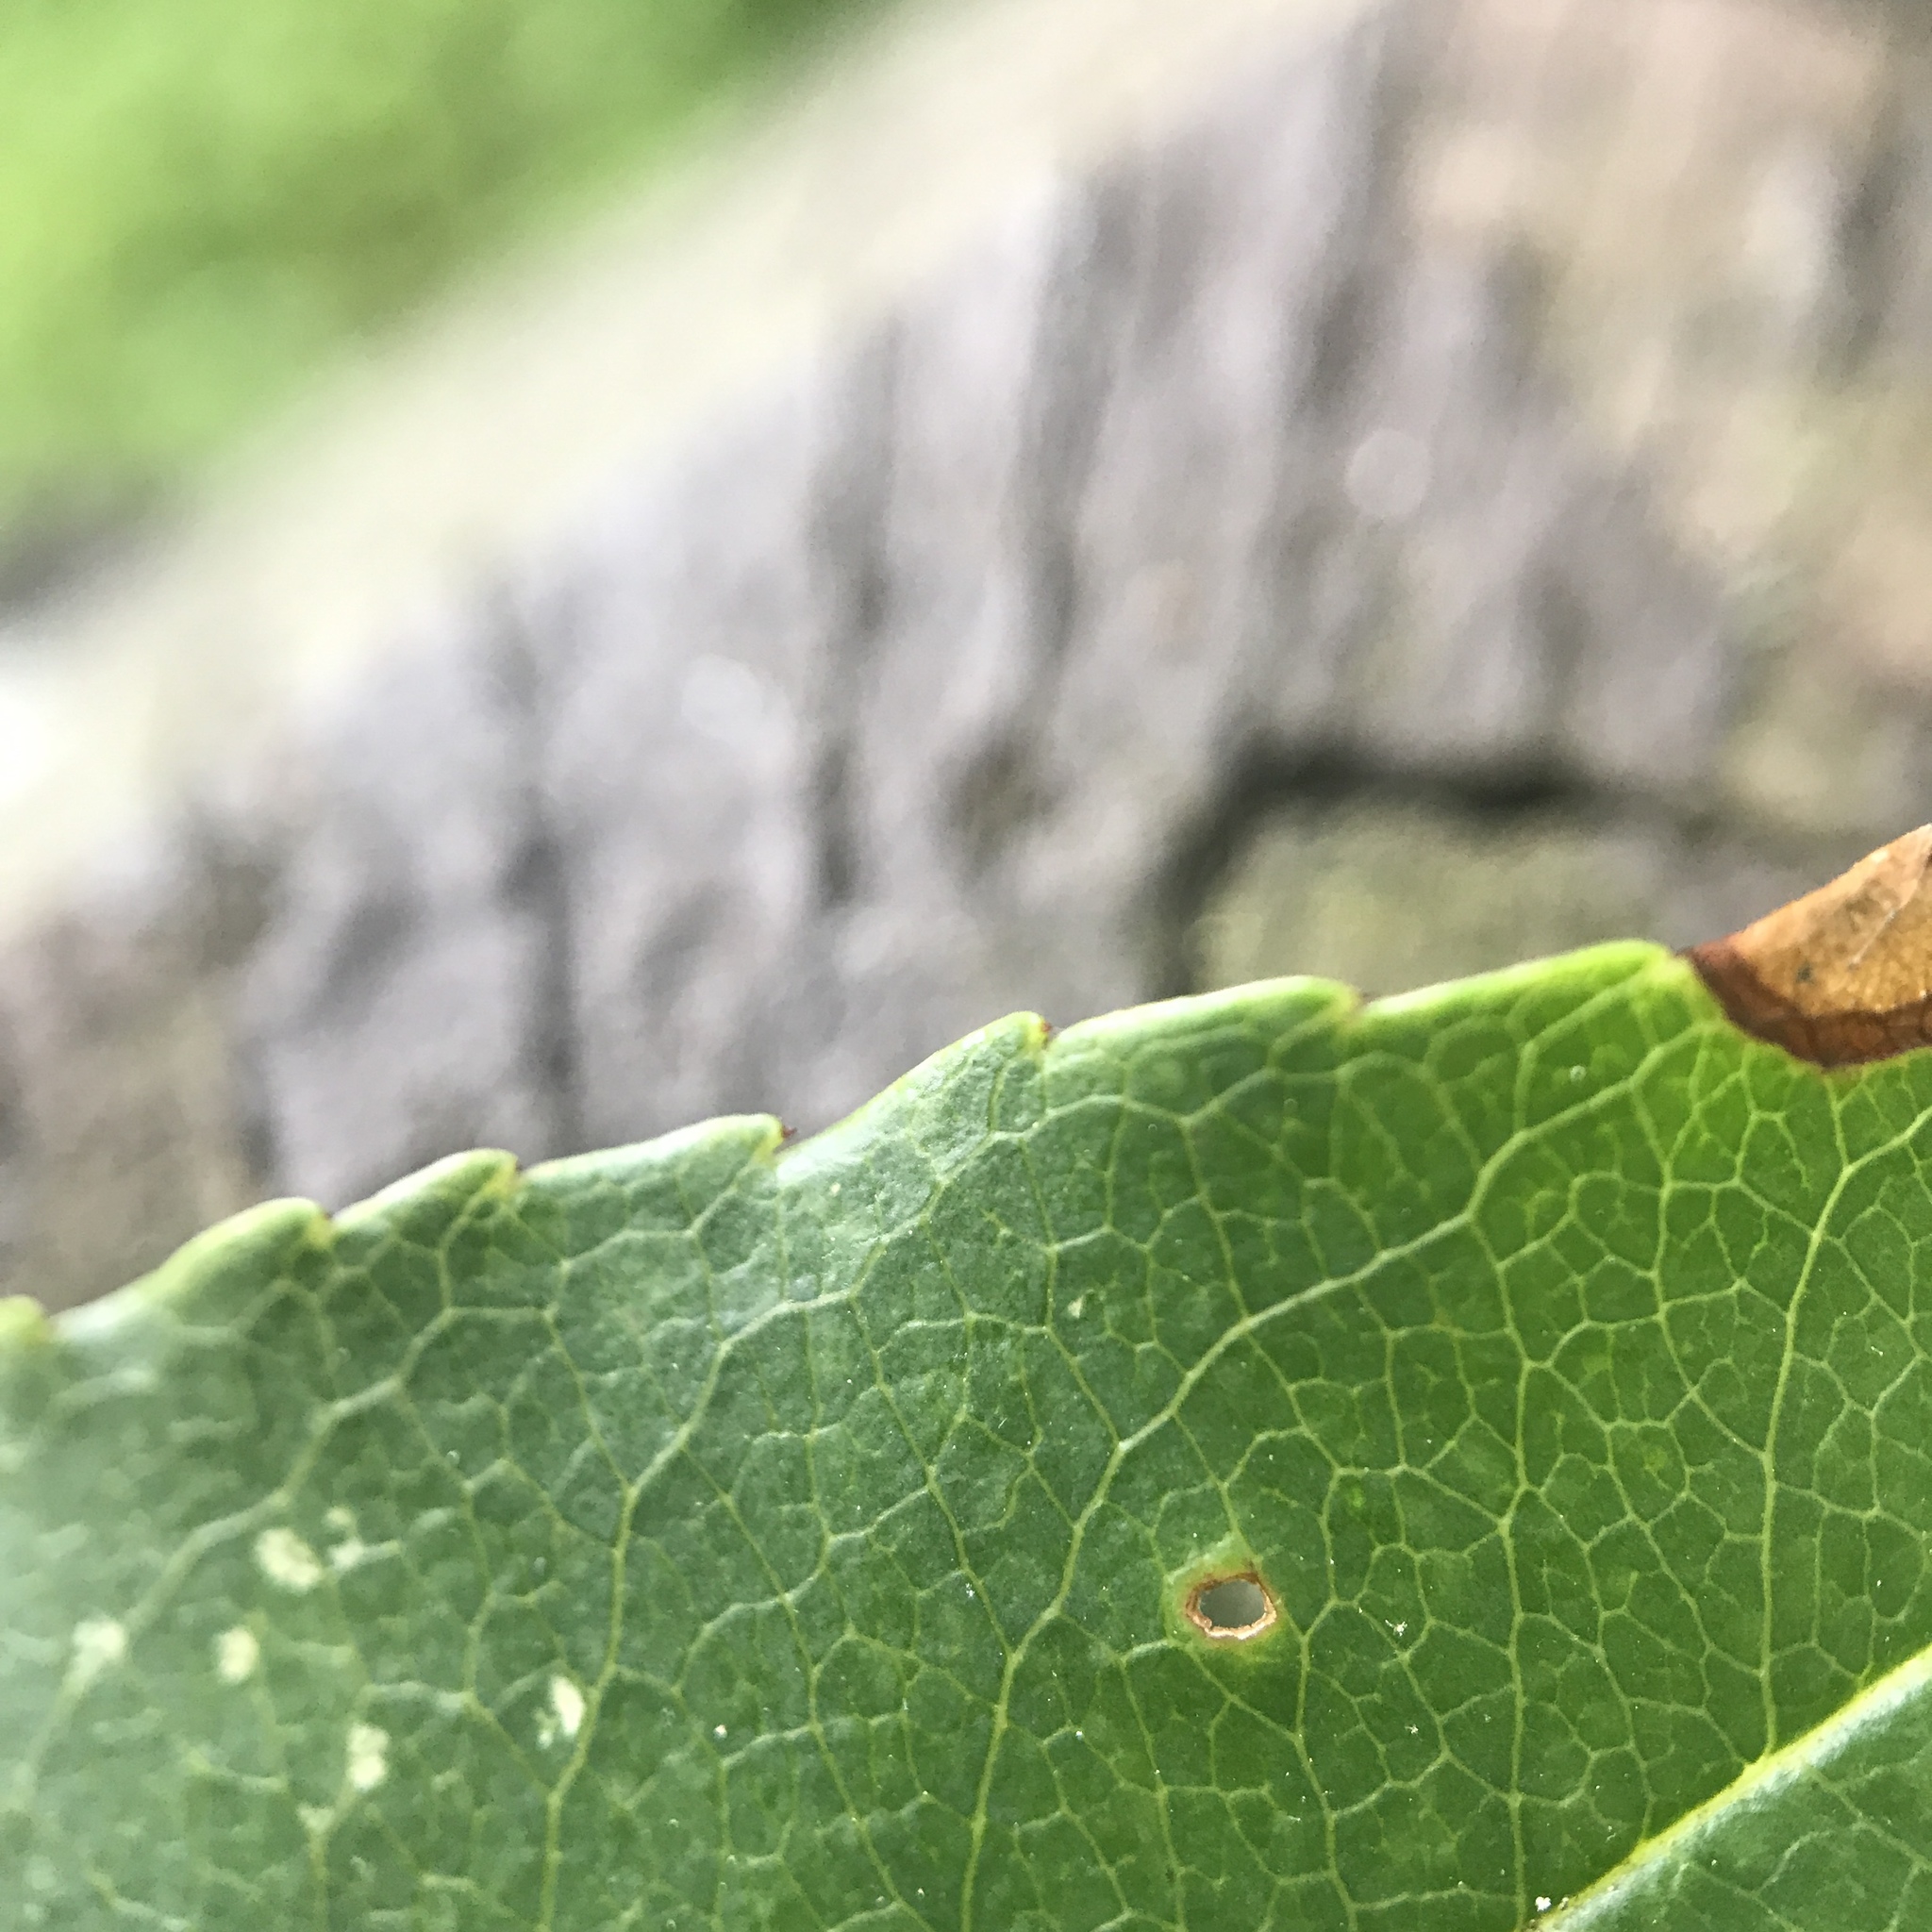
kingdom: Plantae
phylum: Tracheophyta
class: Magnoliopsida
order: Rosales
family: Rosaceae
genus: Prunus
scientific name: Prunus serotina
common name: Black cherry
